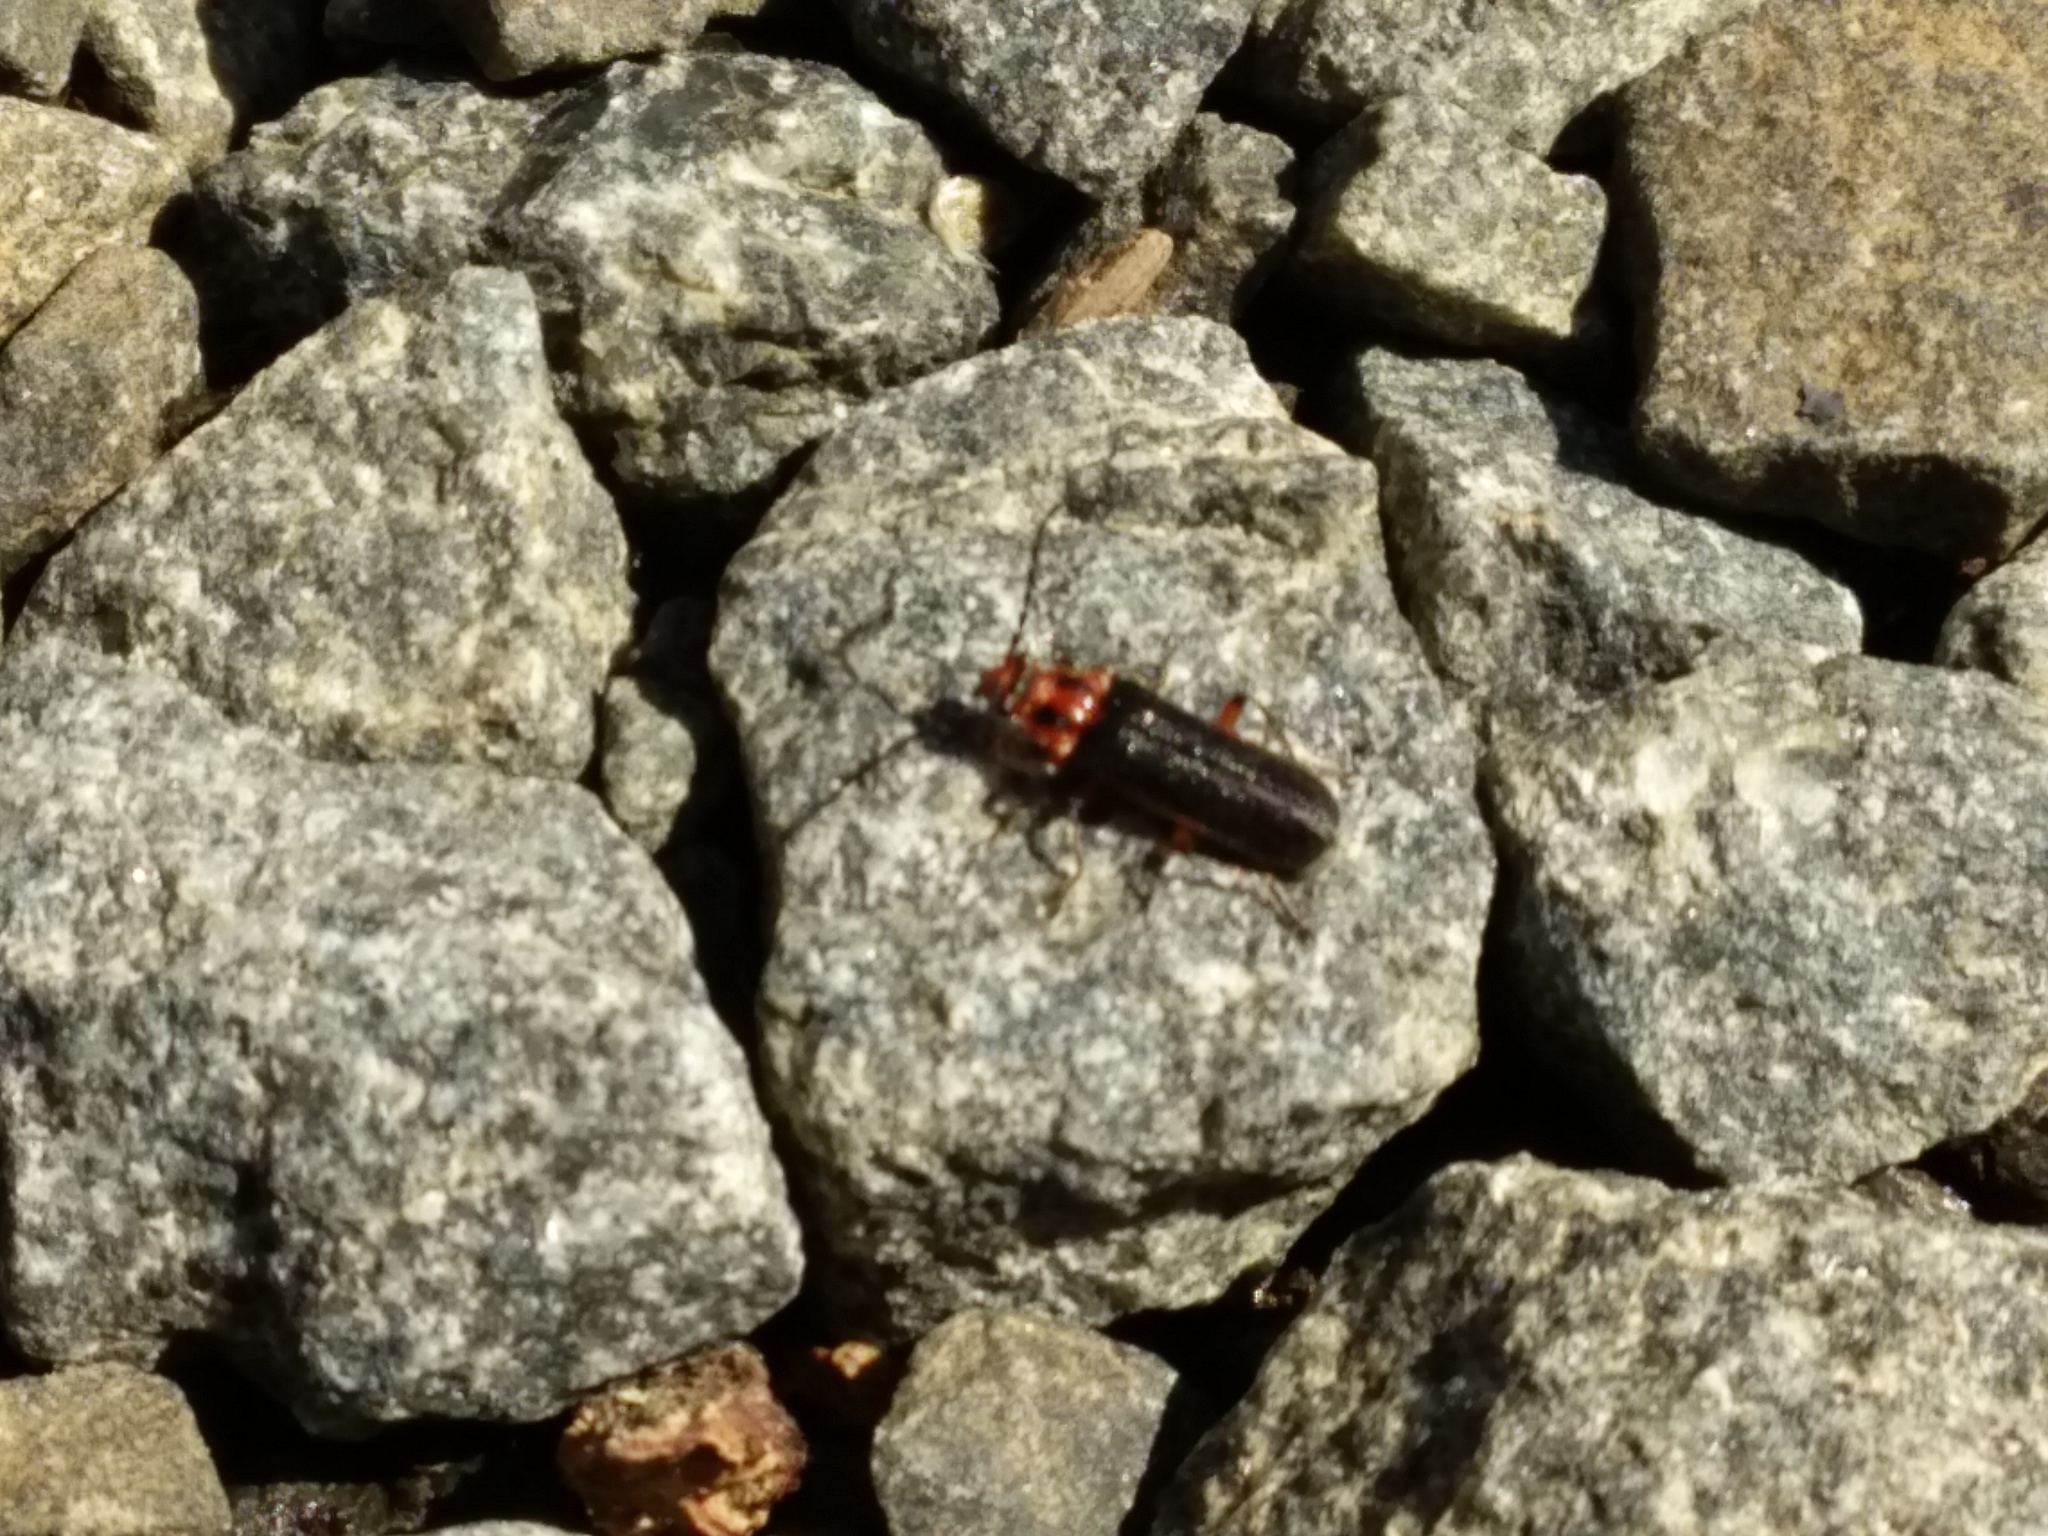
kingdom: Animalia
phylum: Arthropoda
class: Insecta
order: Coleoptera
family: Cantharidae
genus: Atalantycha
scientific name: Atalantycha bilineata
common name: Two-lined leatherwing
